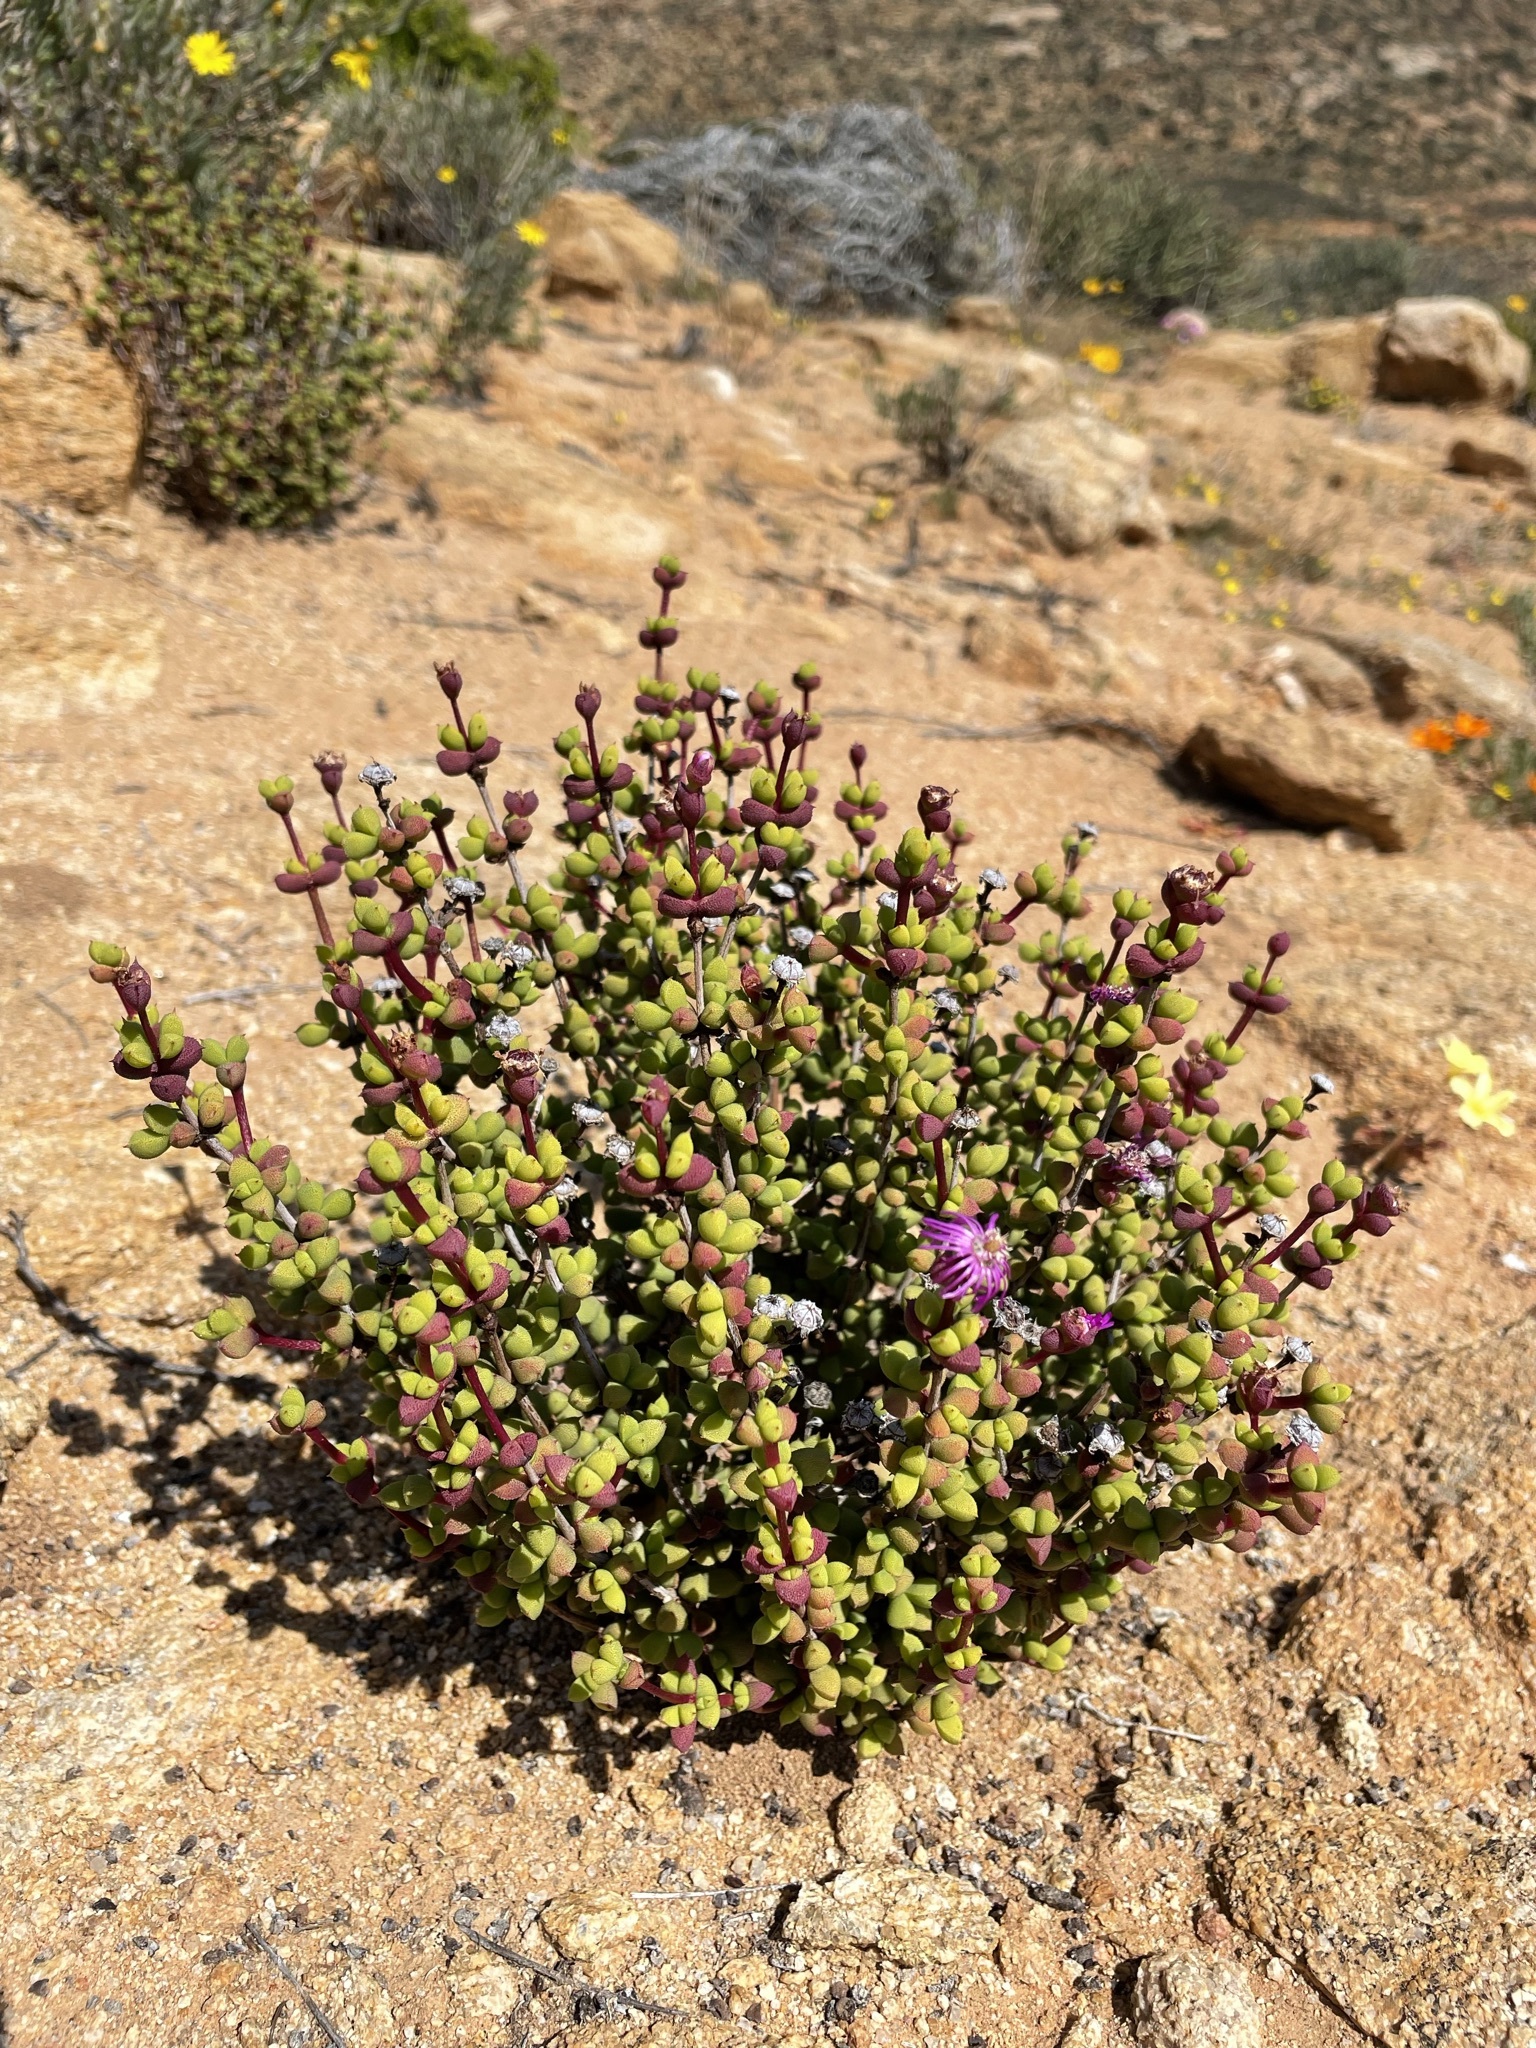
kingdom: Plantae
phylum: Tracheophyta
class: Magnoliopsida
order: Caryophyllales
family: Aizoaceae
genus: Schlechteranthus
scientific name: Schlechteranthus subglobosus
